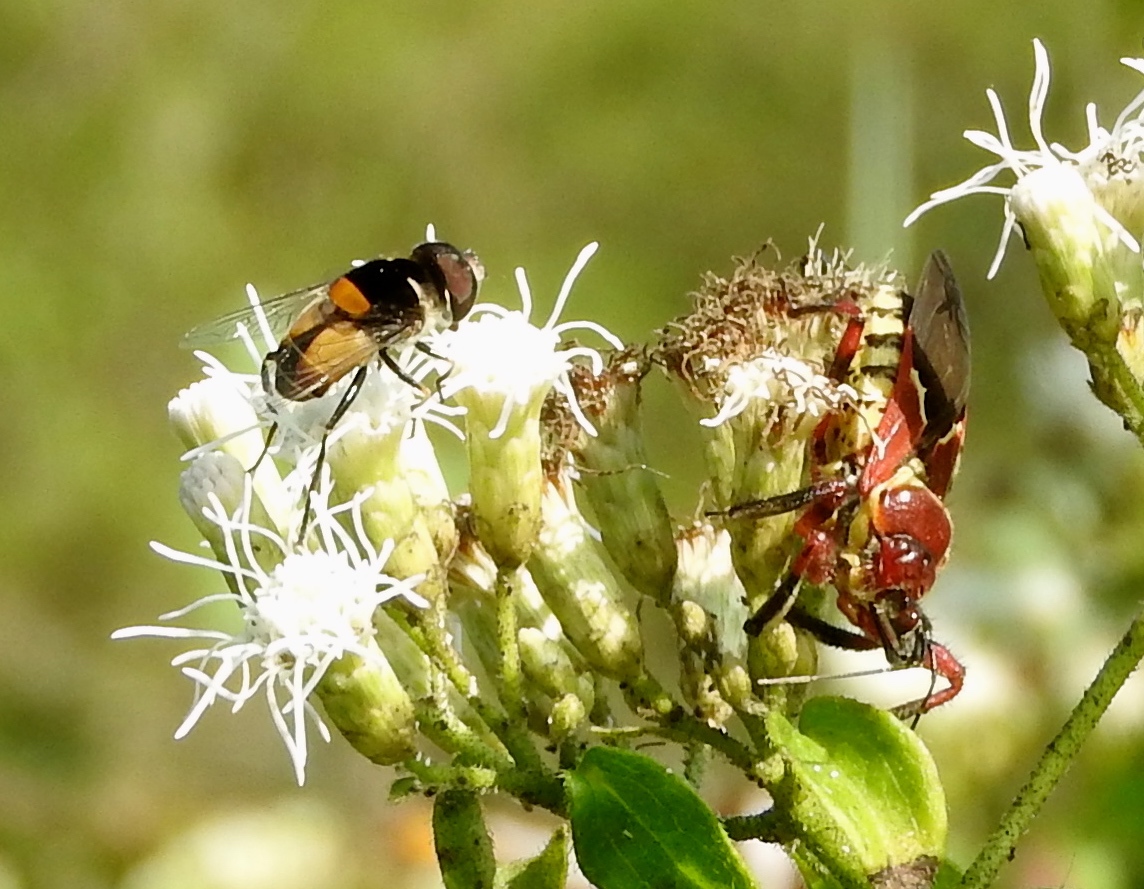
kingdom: Animalia
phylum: Arthropoda
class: Insecta
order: Hemiptera
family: Reduviidae
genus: Apiomerus
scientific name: Apiomerus
